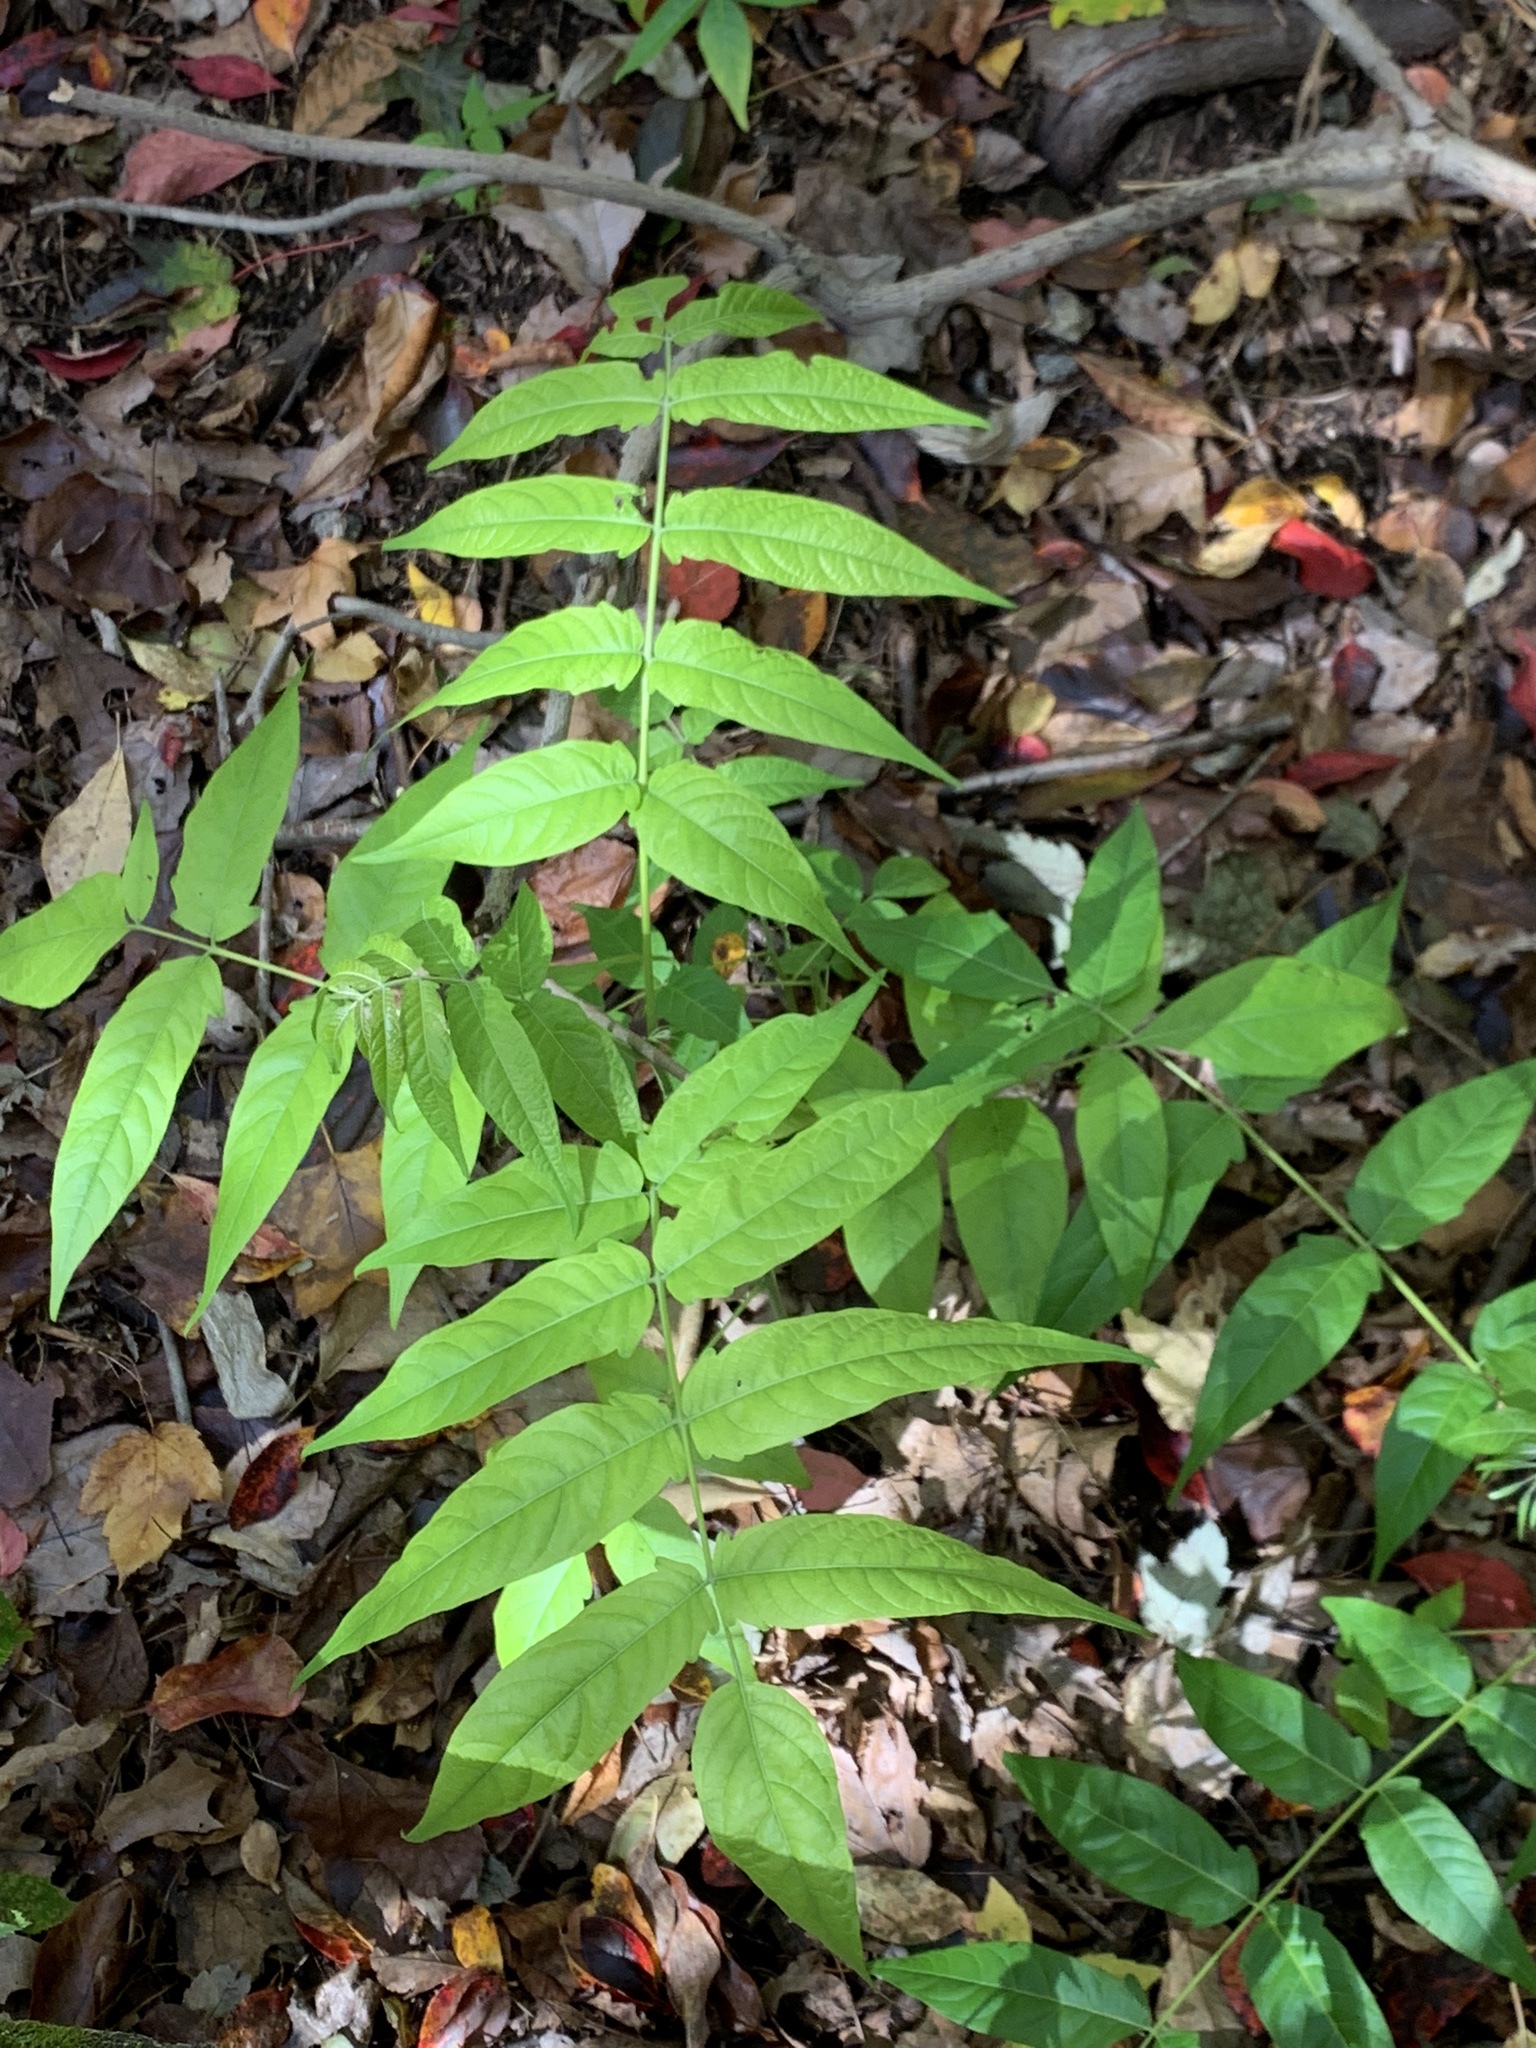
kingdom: Plantae
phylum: Tracheophyta
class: Magnoliopsida
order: Sapindales
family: Simaroubaceae
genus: Ailanthus
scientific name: Ailanthus altissima
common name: Tree-of-heaven
